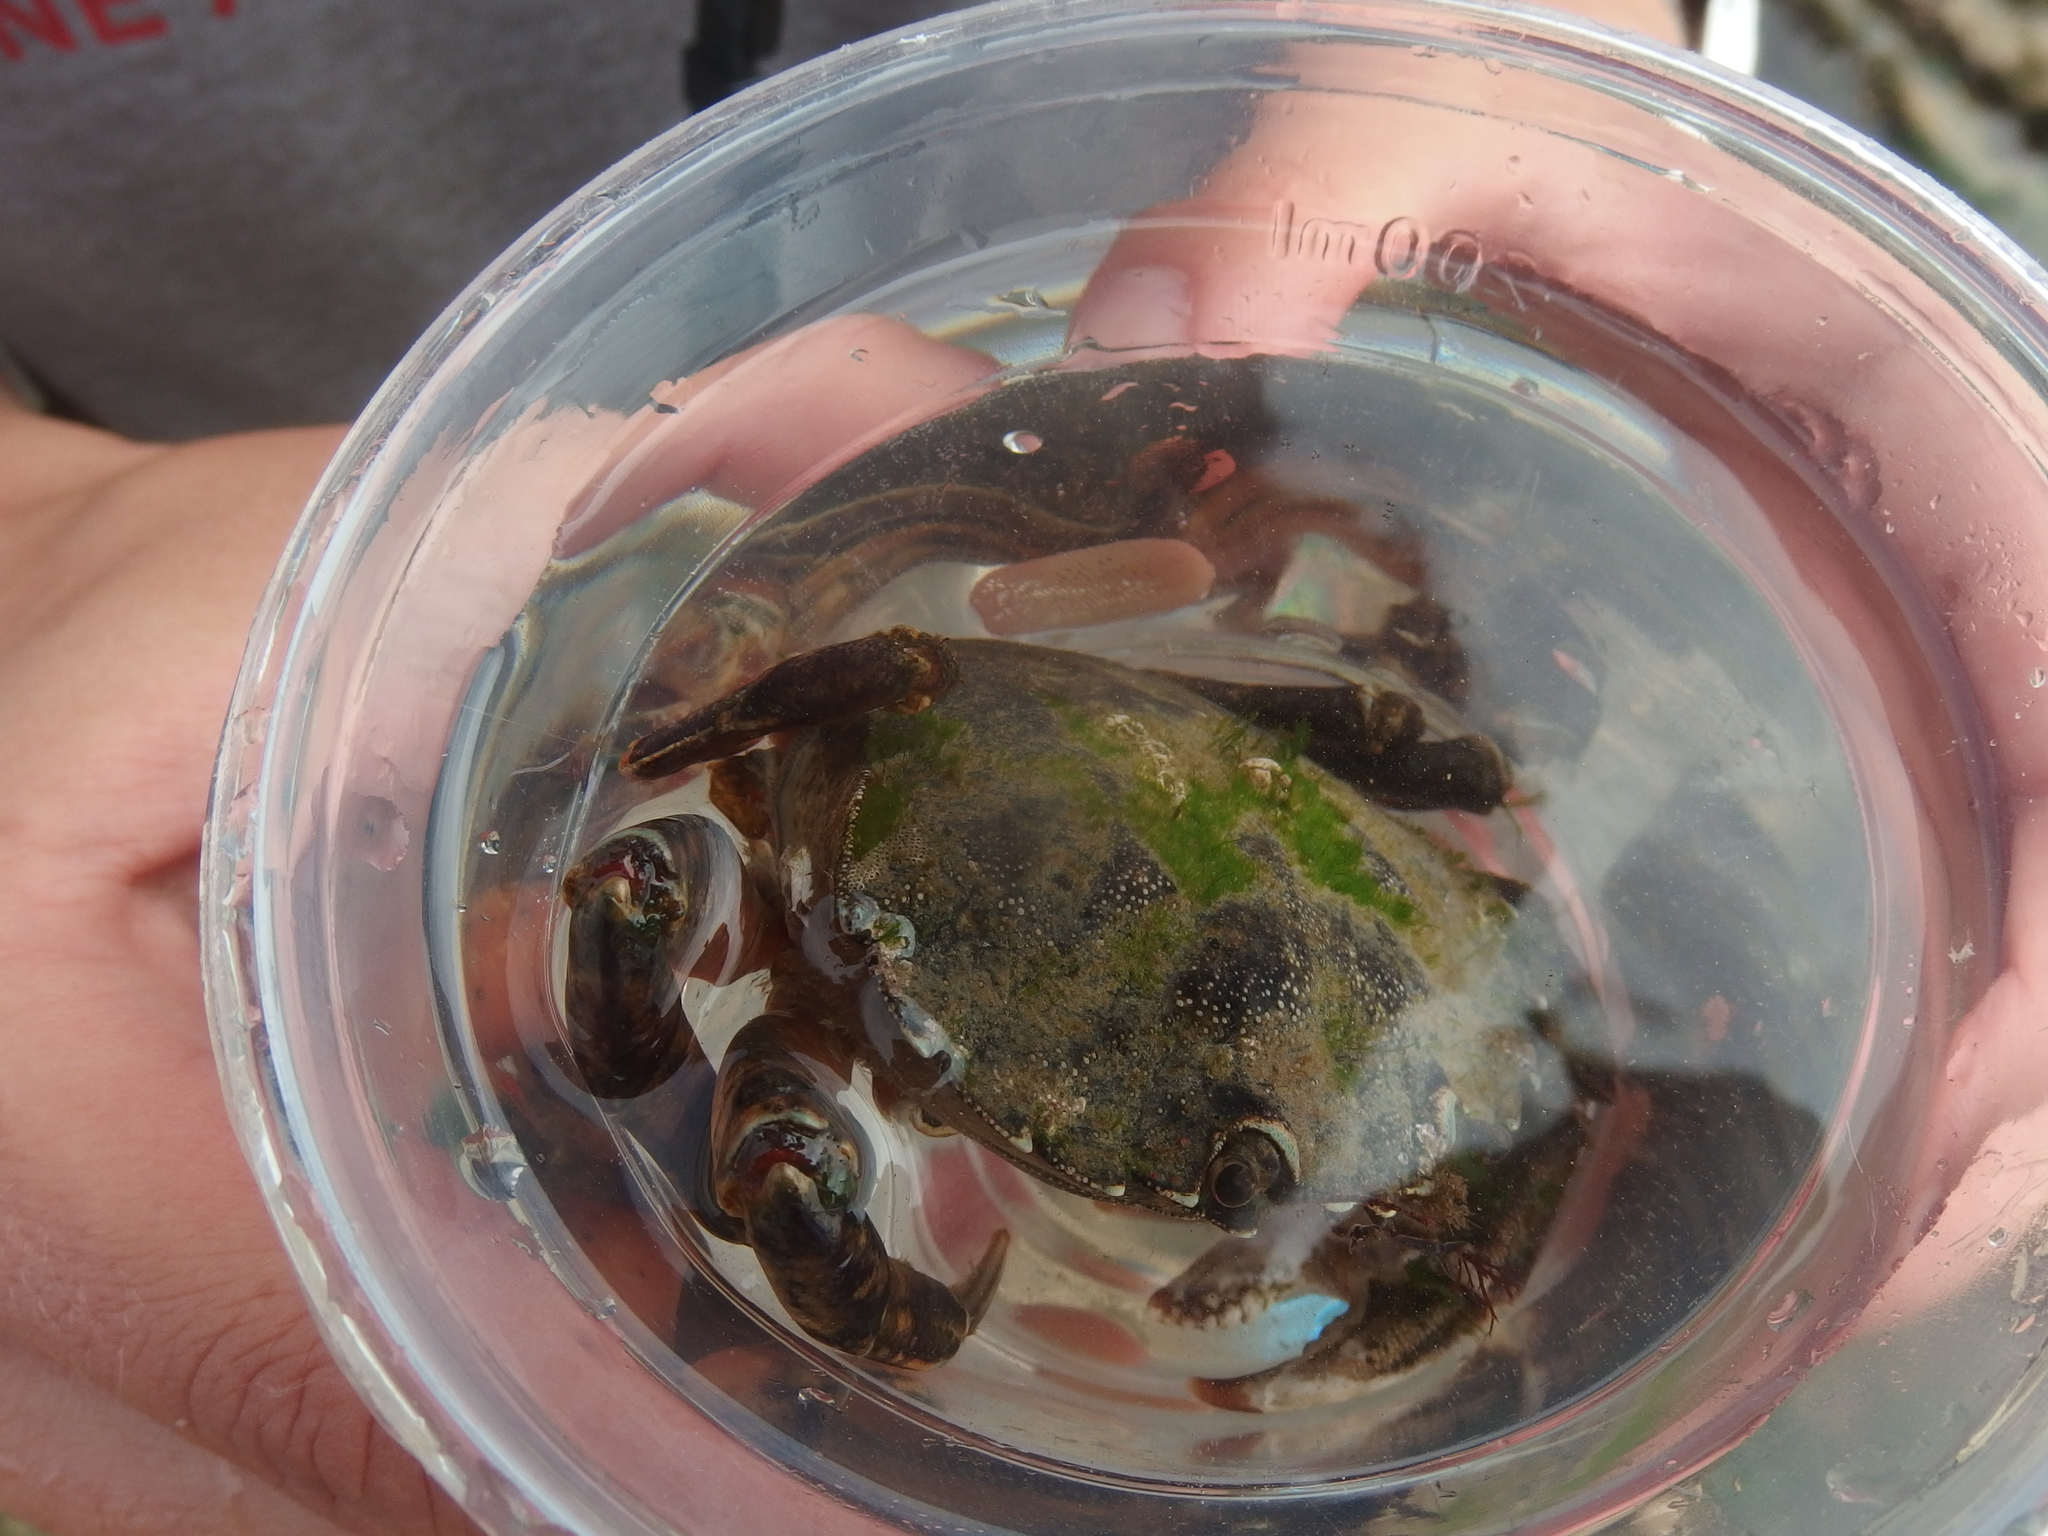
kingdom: Animalia
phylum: Arthropoda
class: Malacostraca
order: Decapoda
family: Carcinidae
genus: Carcinus
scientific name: Carcinus maenas
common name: European green crab
